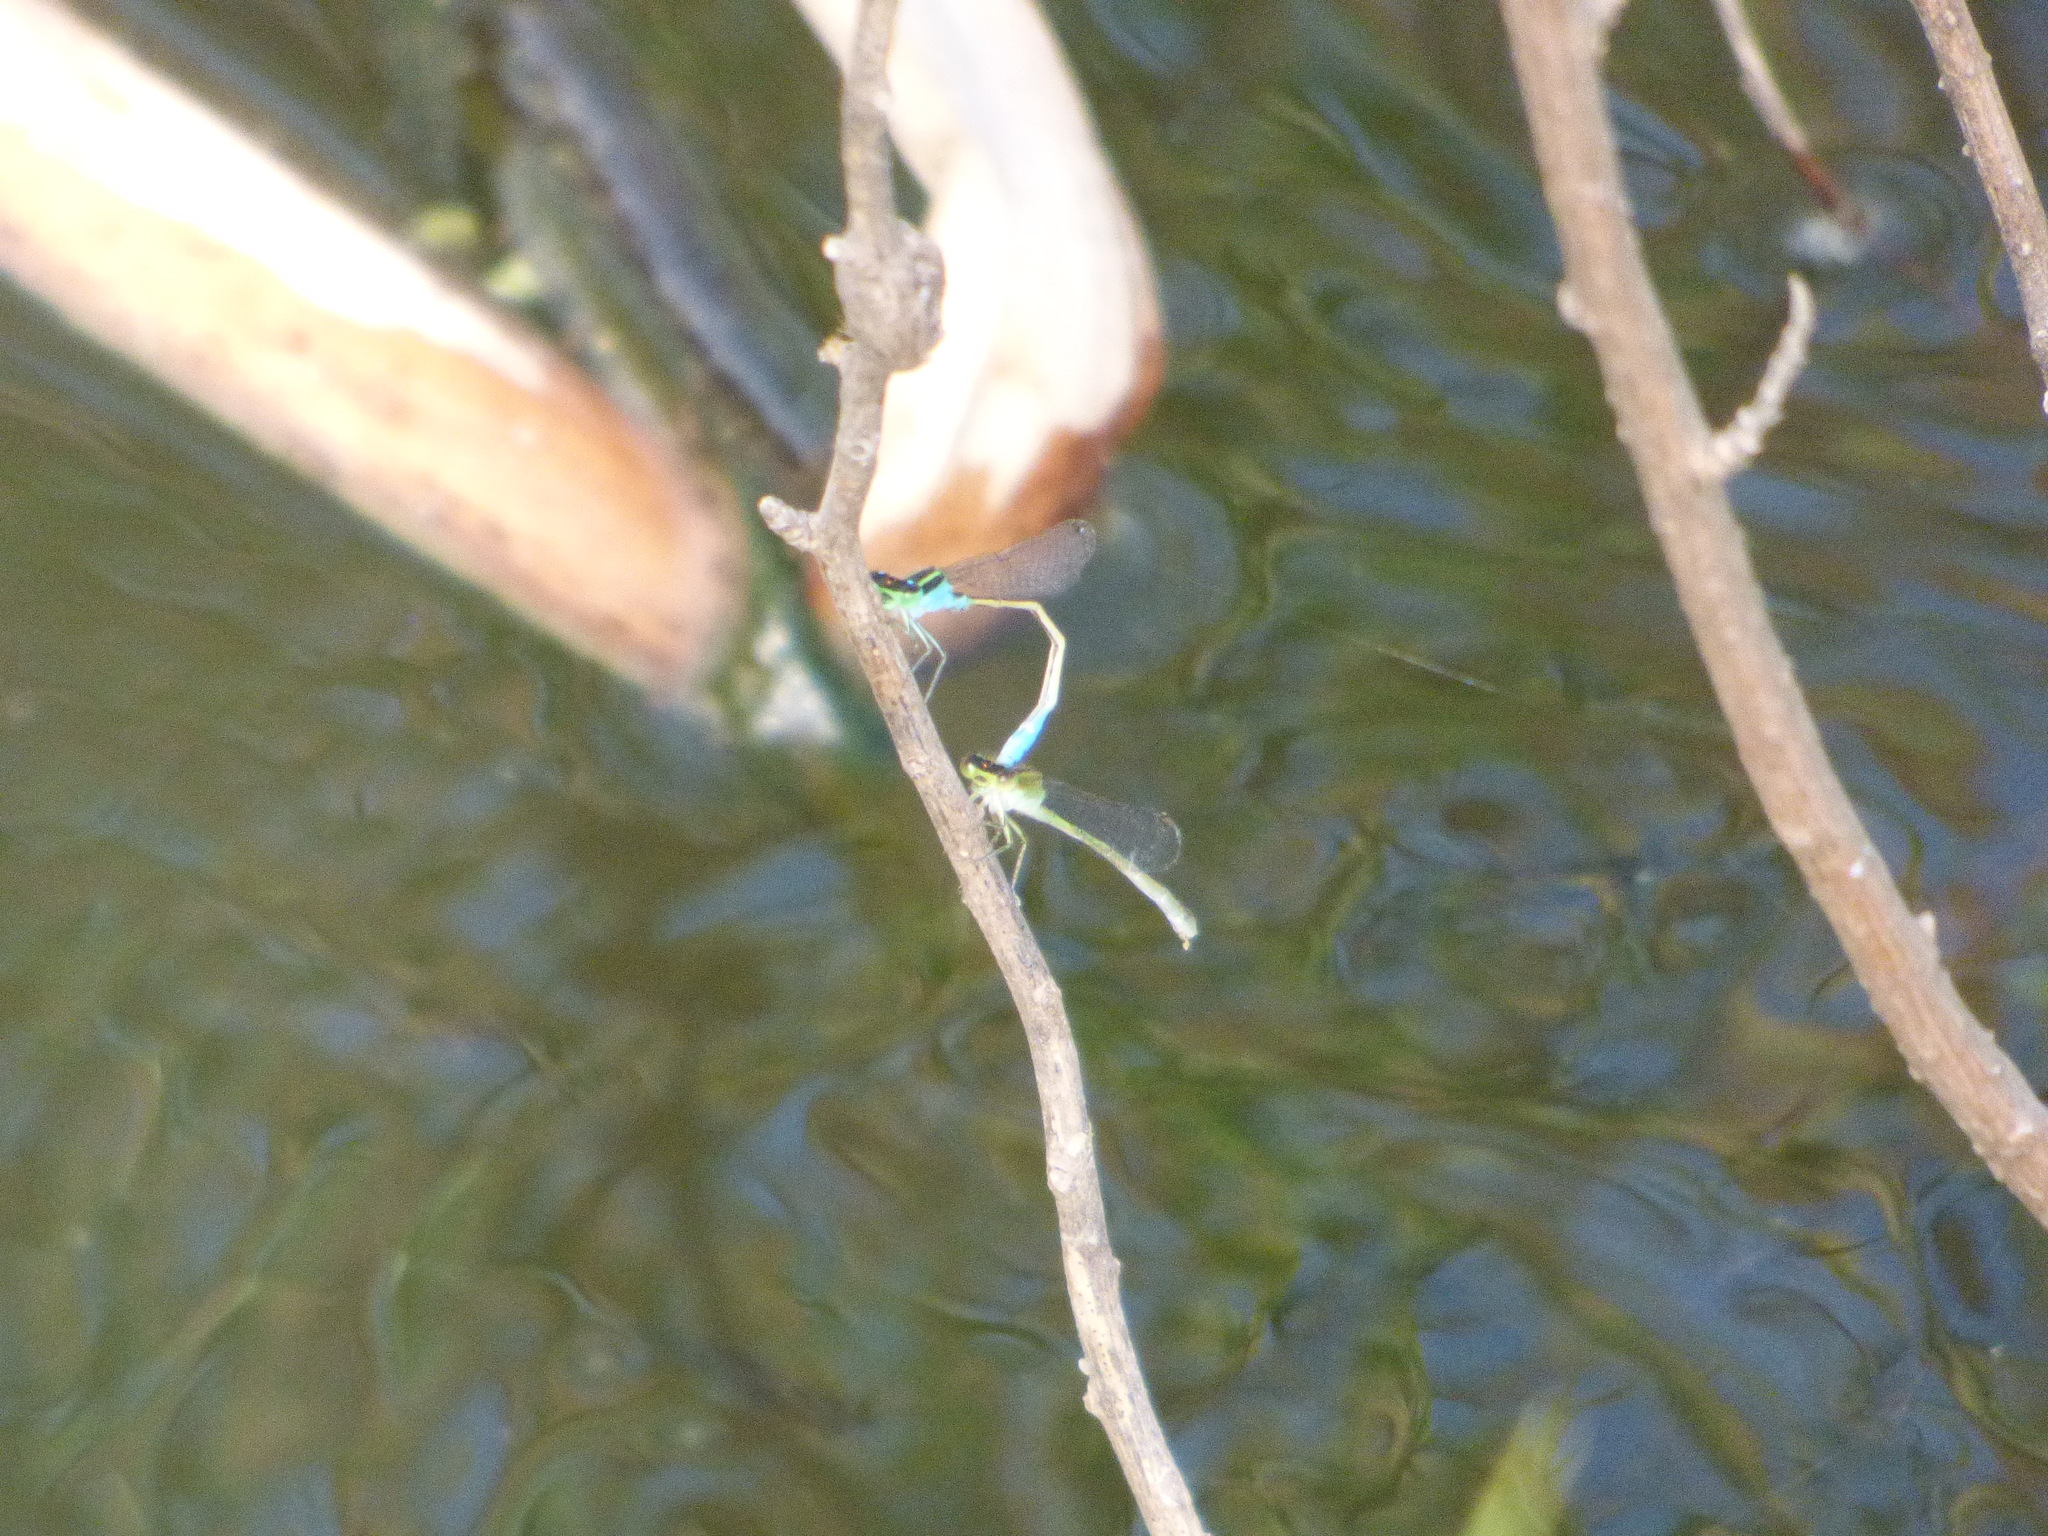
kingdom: Animalia
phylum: Arthropoda
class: Insecta
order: Odonata
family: Coenagrionidae
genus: Ischnura
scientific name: Ischnura fluviatilis
